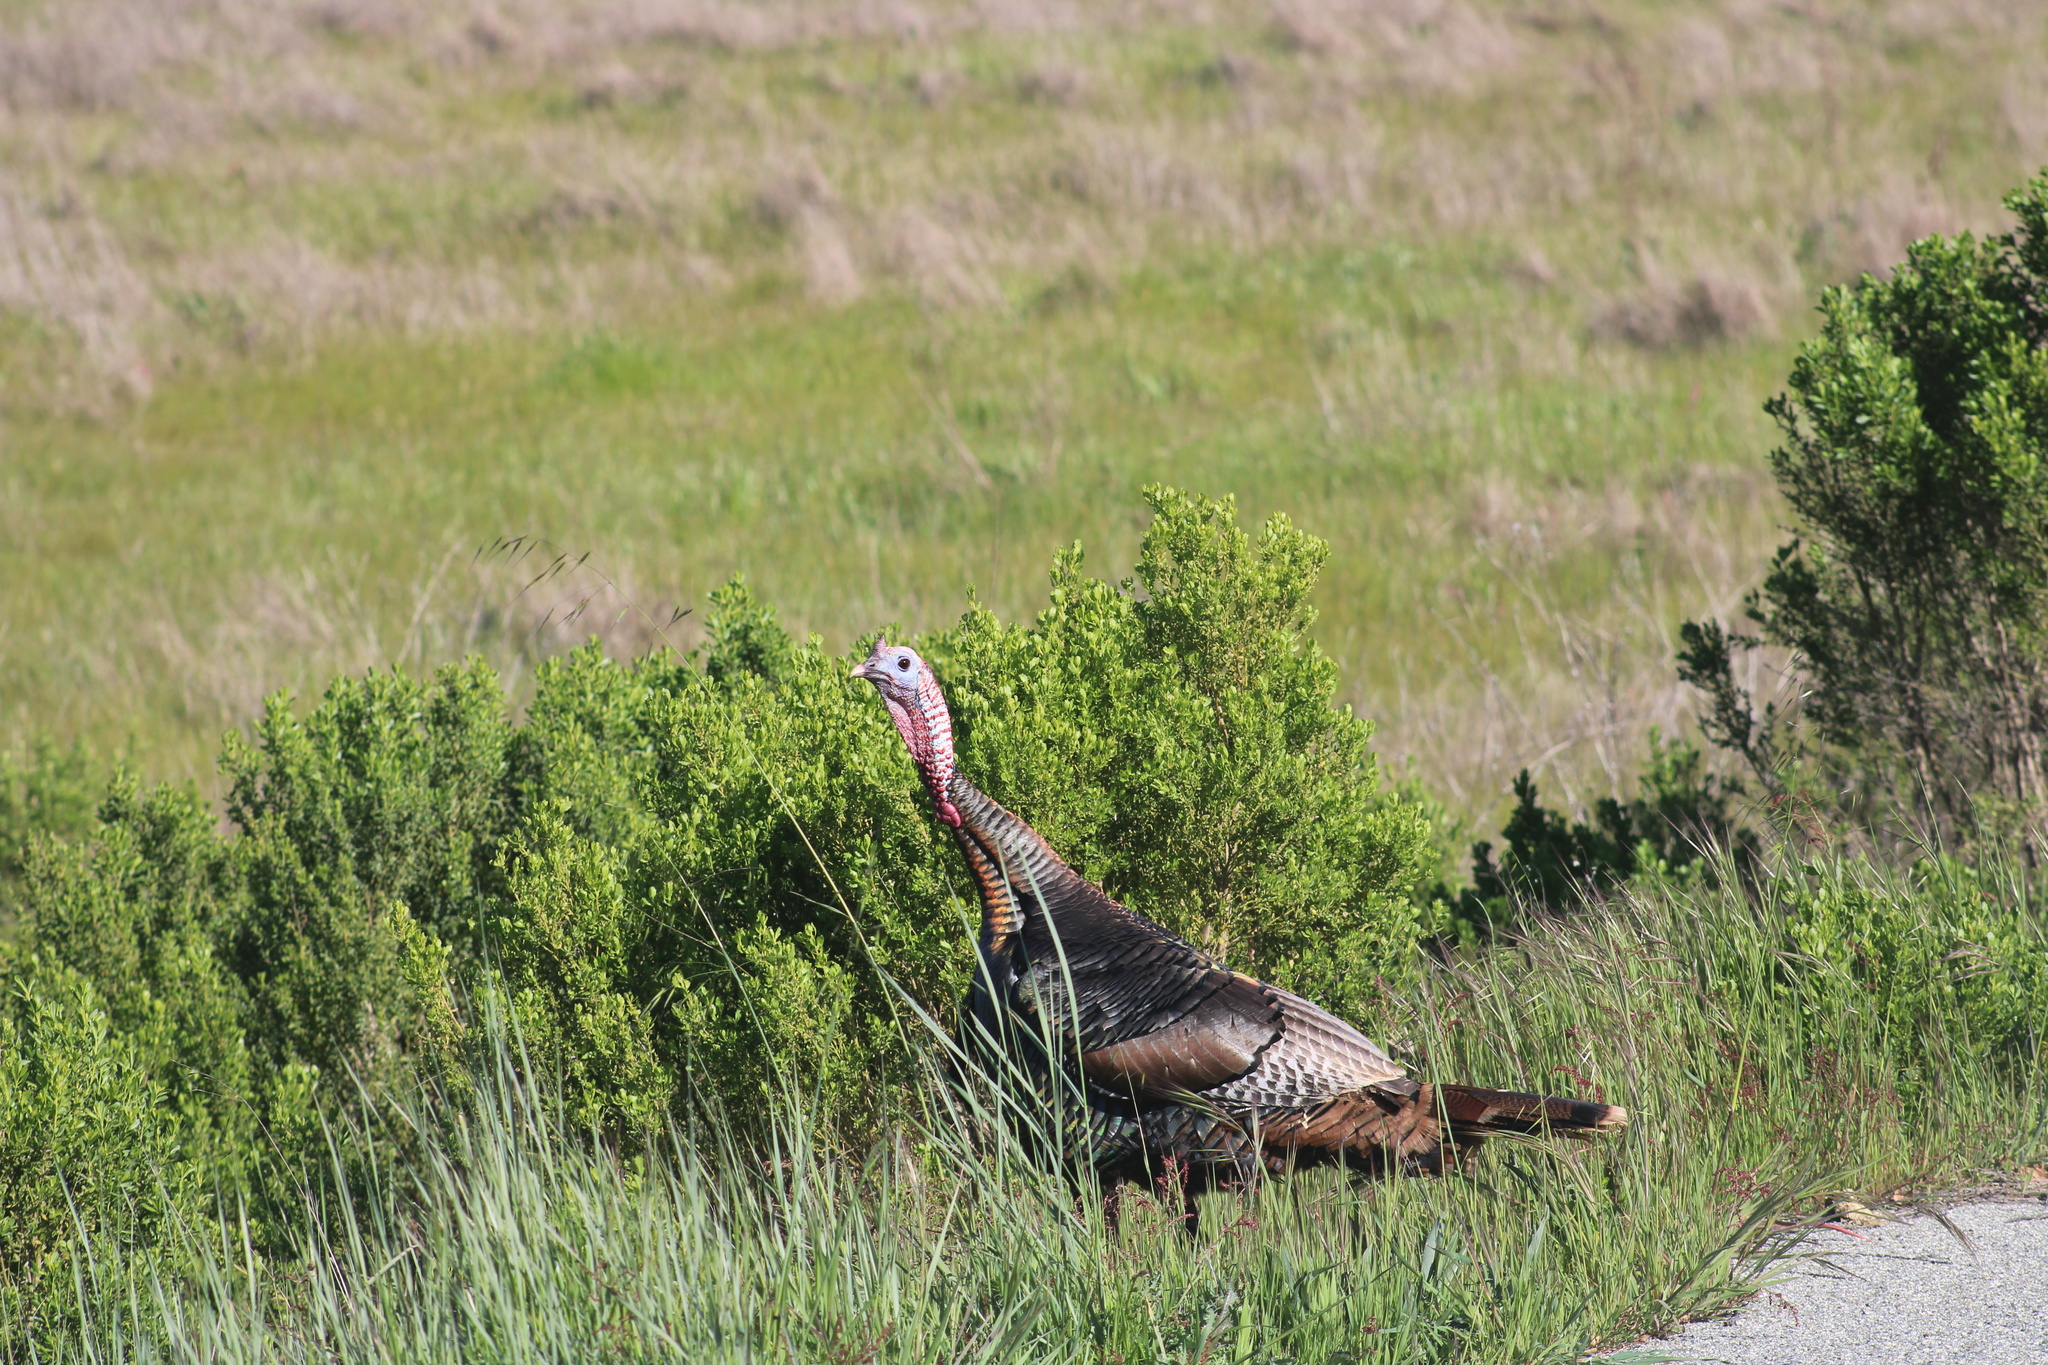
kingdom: Animalia
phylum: Chordata
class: Aves
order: Galliformes
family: Phasianidae
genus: Meleagris
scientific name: Meleagris gallopavo
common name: Wild turkey
